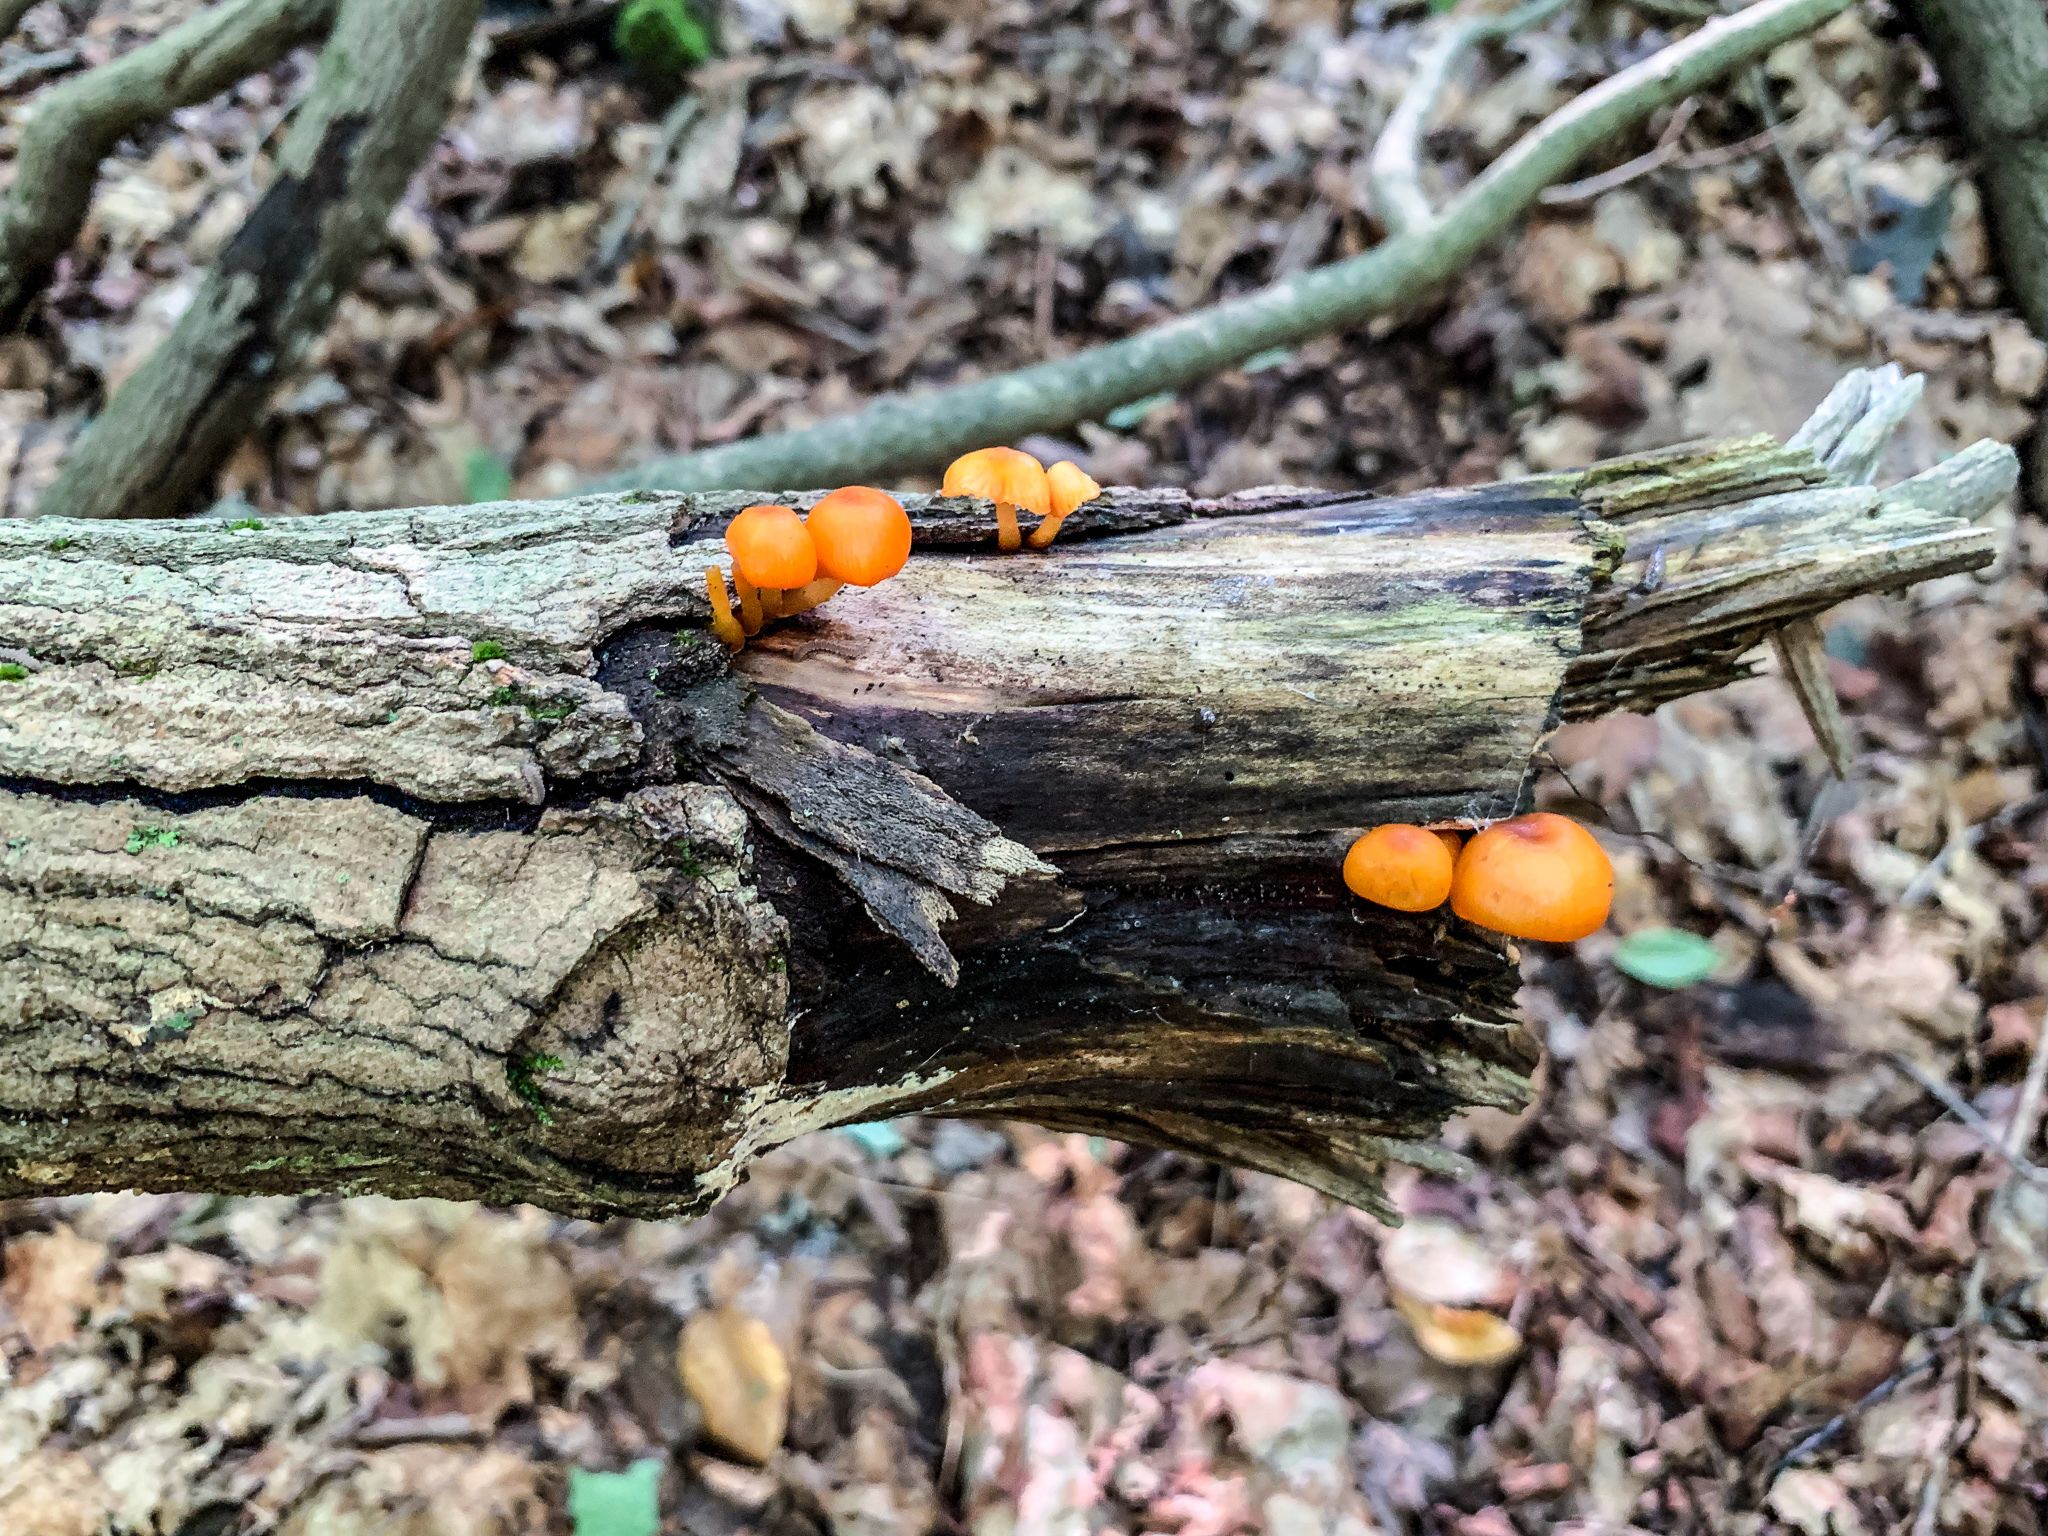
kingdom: Fungi
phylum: Basidiomycota
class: Agaricomycetes
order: Agaricales
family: Mycenaceae
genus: Mycena
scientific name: Mycena leaiana
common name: Orange mycena
